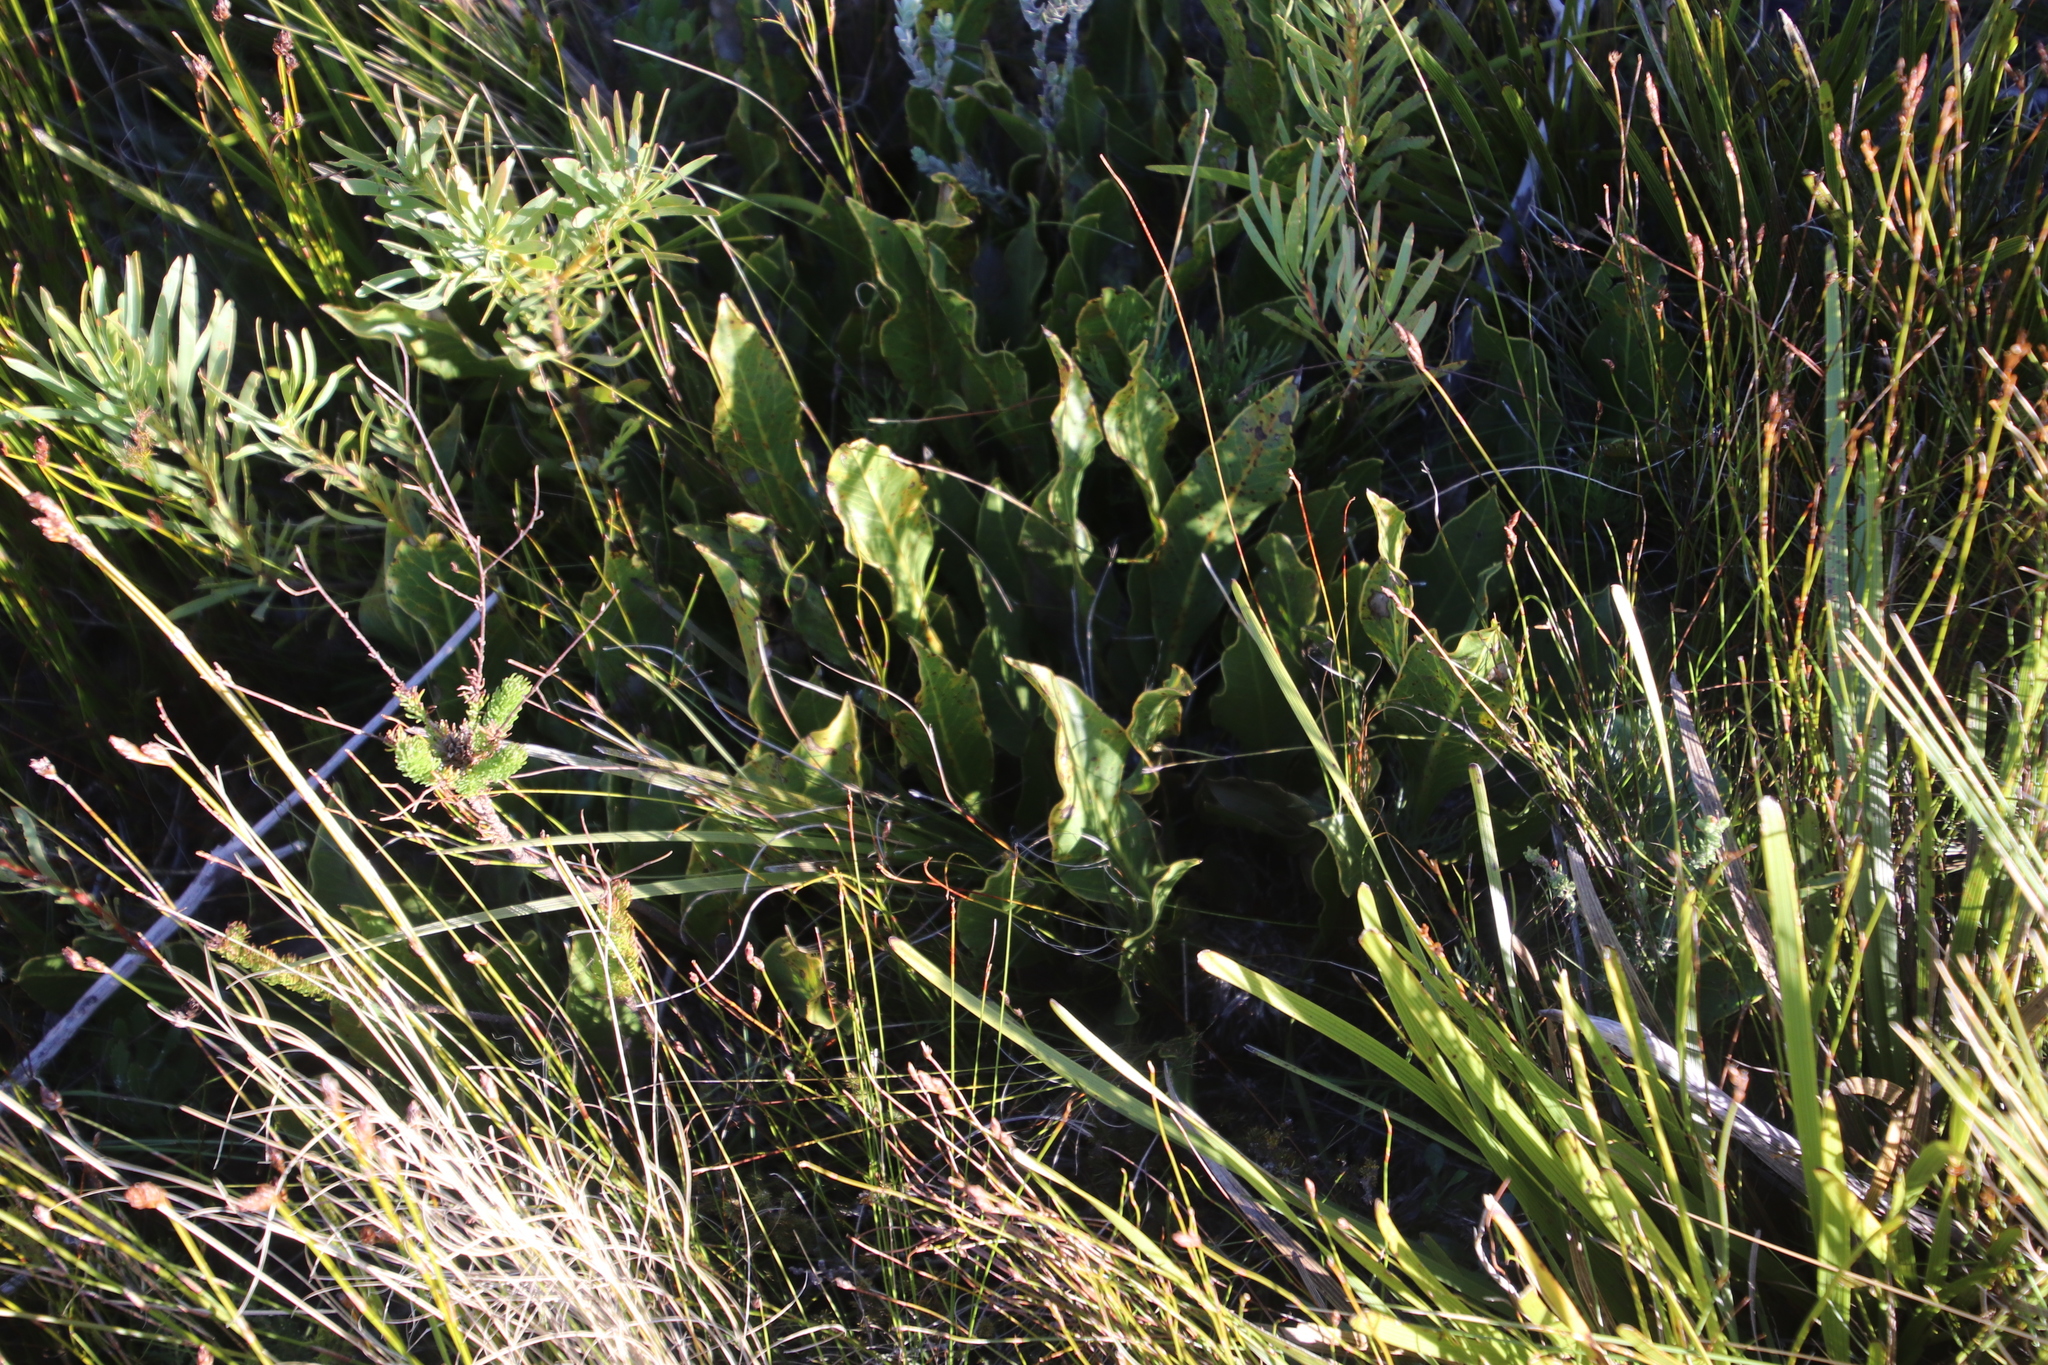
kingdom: Plantae
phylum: Tracheophyta
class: Magnoliopsida
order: Proteales
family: Proteaceae
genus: Protea
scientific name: Protea scolopendriifolia
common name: Harts-tongue-fern sugarbush
